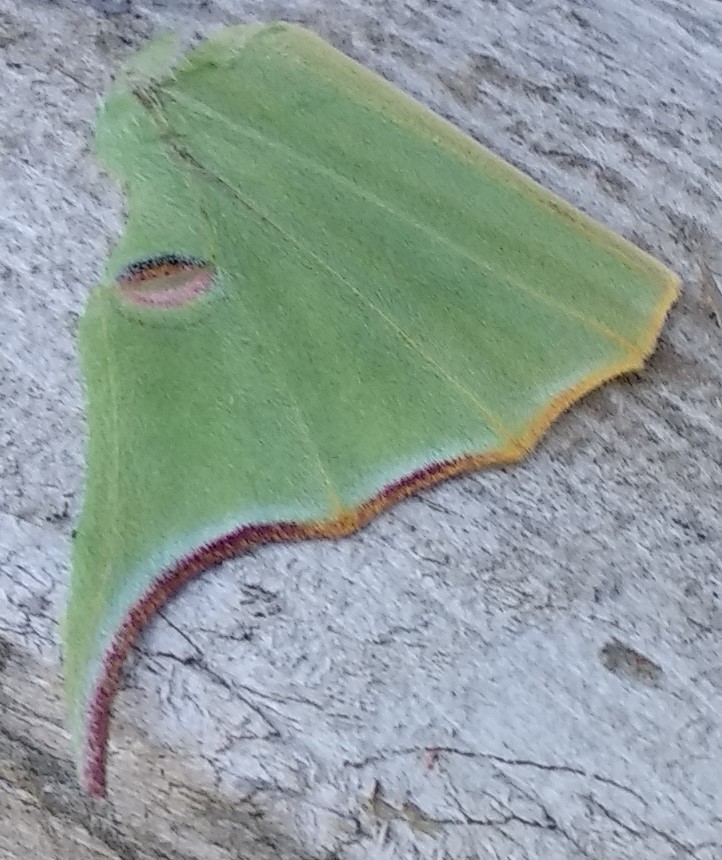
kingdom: Animalia
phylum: Arthropoda
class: Insecta
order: Lepidoptera
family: Saturniidae
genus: Actias
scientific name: Actias luna
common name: Luna moth
